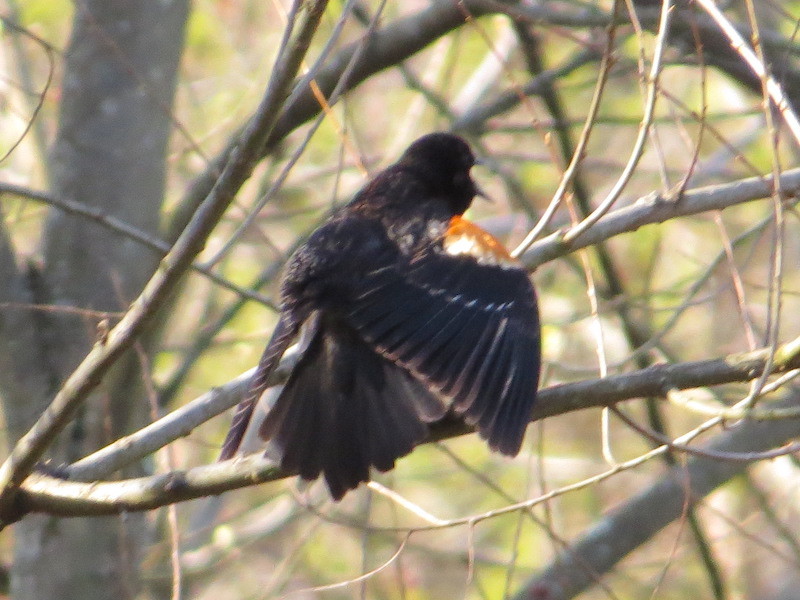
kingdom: Animalia
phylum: Chordata
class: Aves
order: Passeriformes
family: Icteridae
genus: Agelaius
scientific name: Agelaius phoeniceus
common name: Red-winged blackbird
